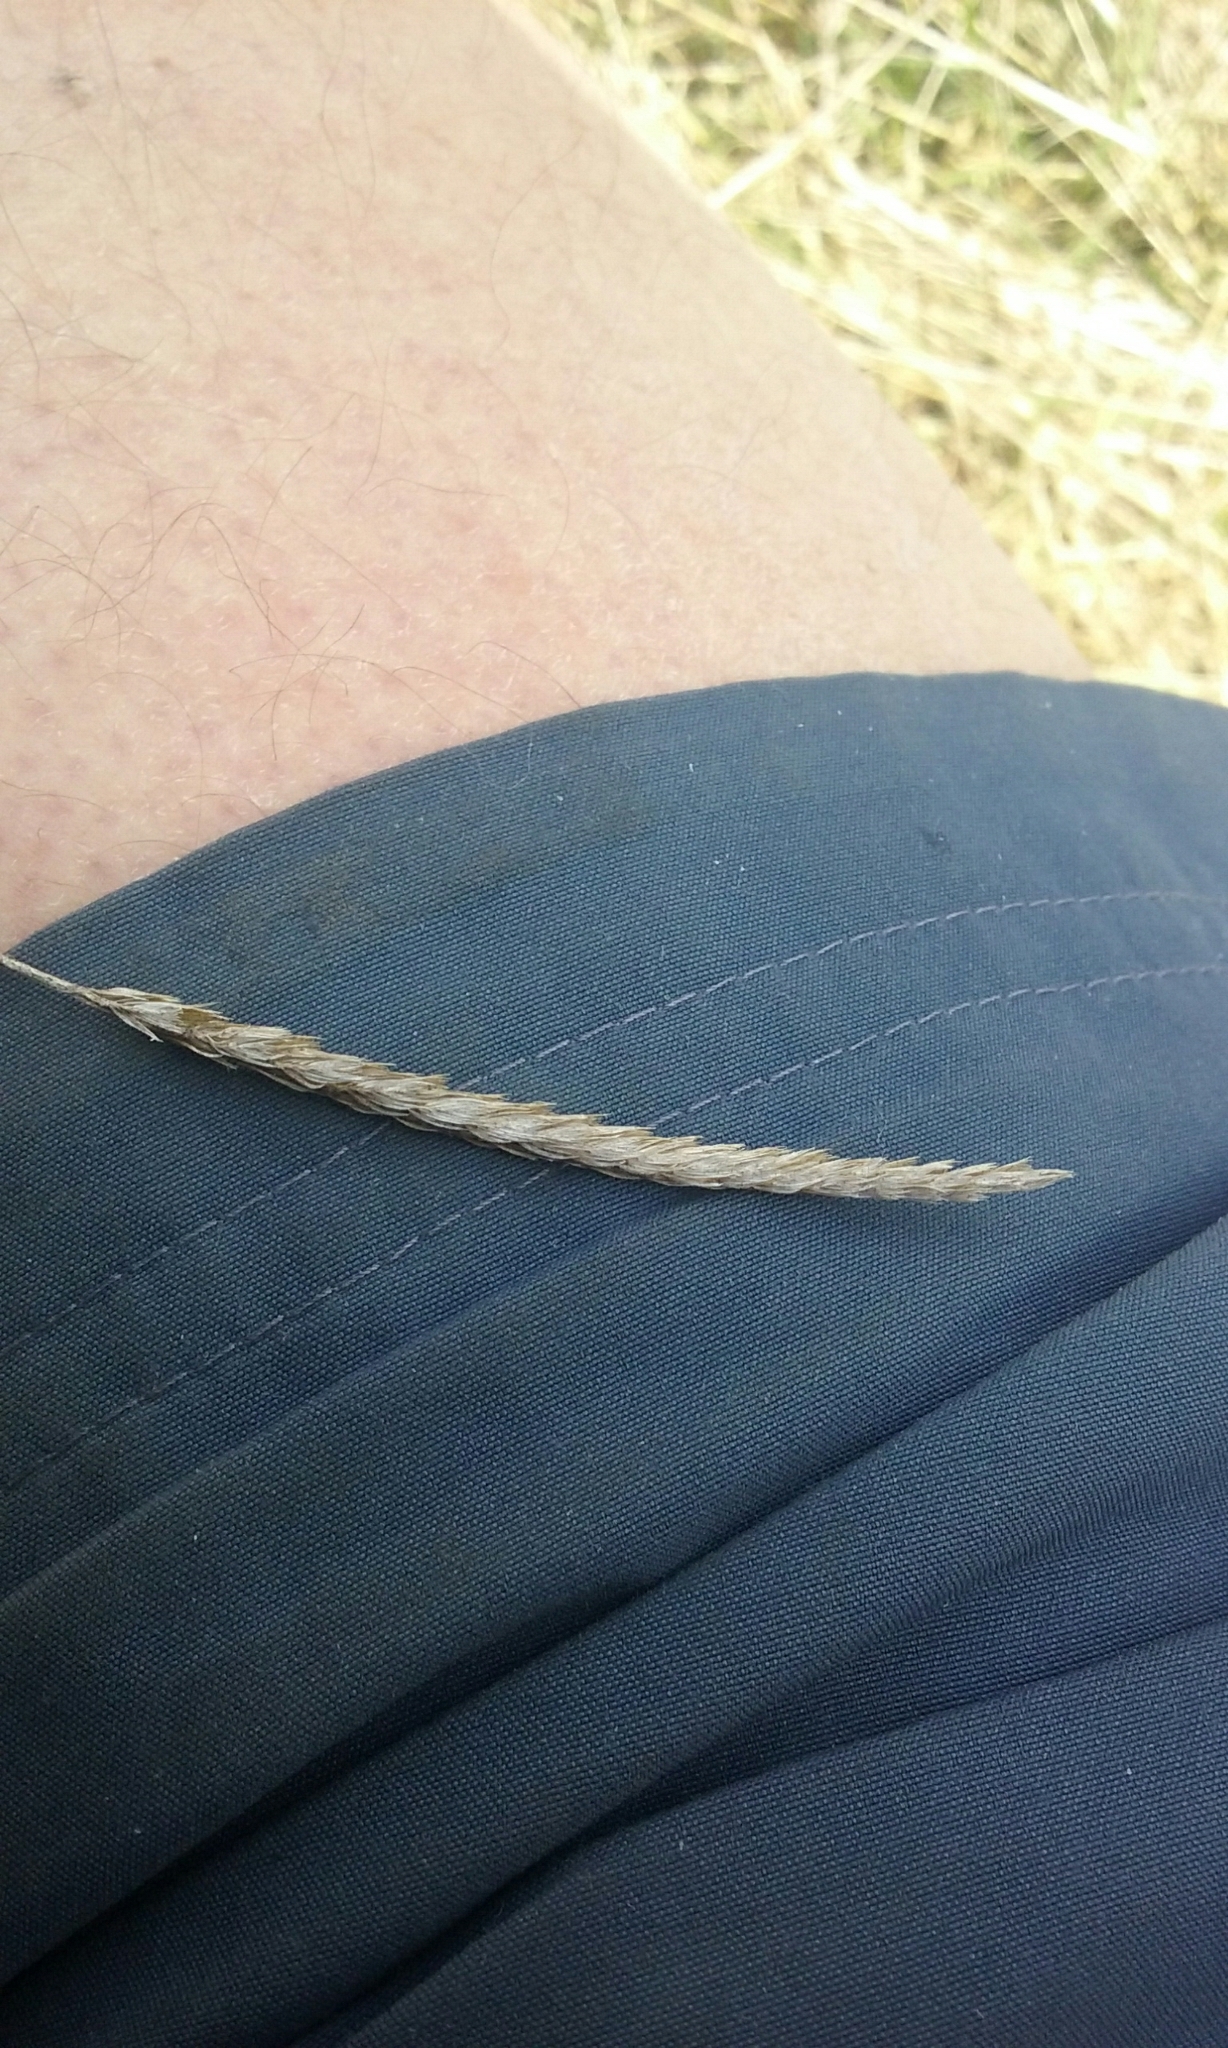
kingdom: Plantae
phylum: Tracheophyta
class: Liliopsida
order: Poales
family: Poaceae
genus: Cynosurus
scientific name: Cynosurus cristatus
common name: Crested dog's-tail
